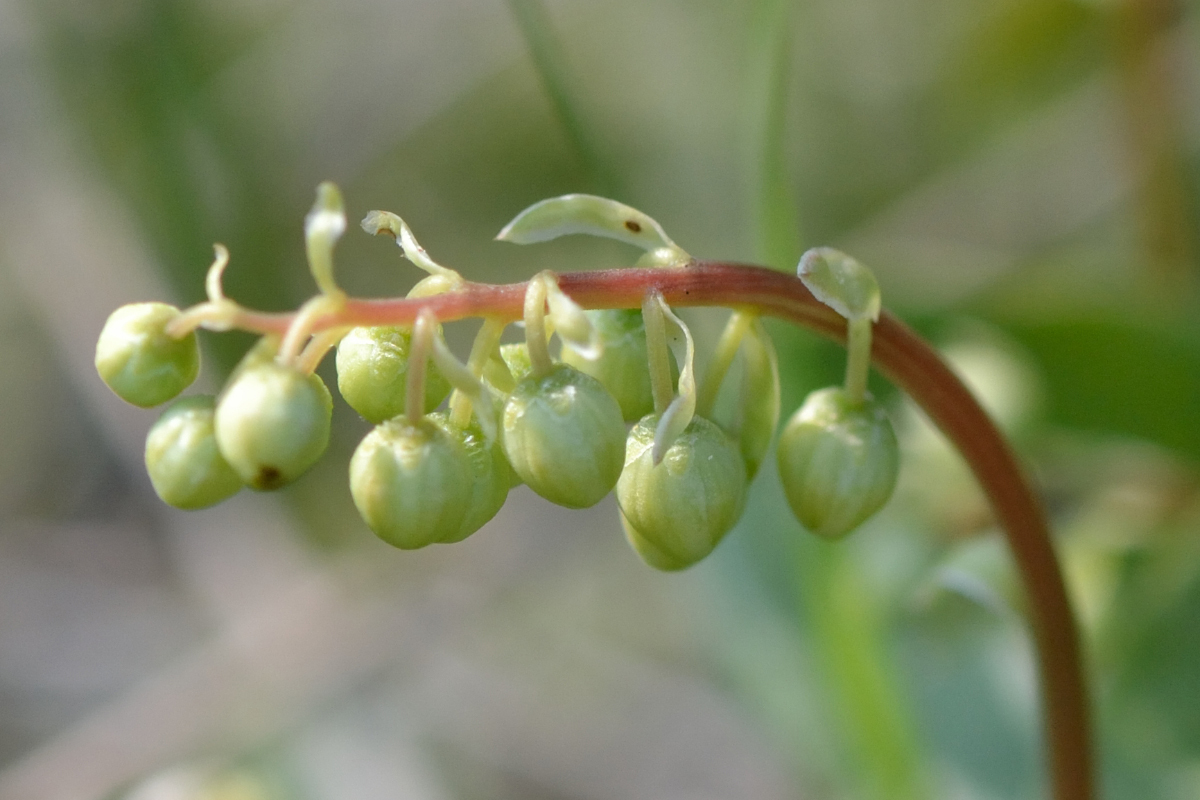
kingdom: Plantae
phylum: Tracheophyta
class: Magnoliopsida
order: Ericales
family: Ericaceae
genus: Orthilia
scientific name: Orthilia secunda
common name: One-sided orthilia
